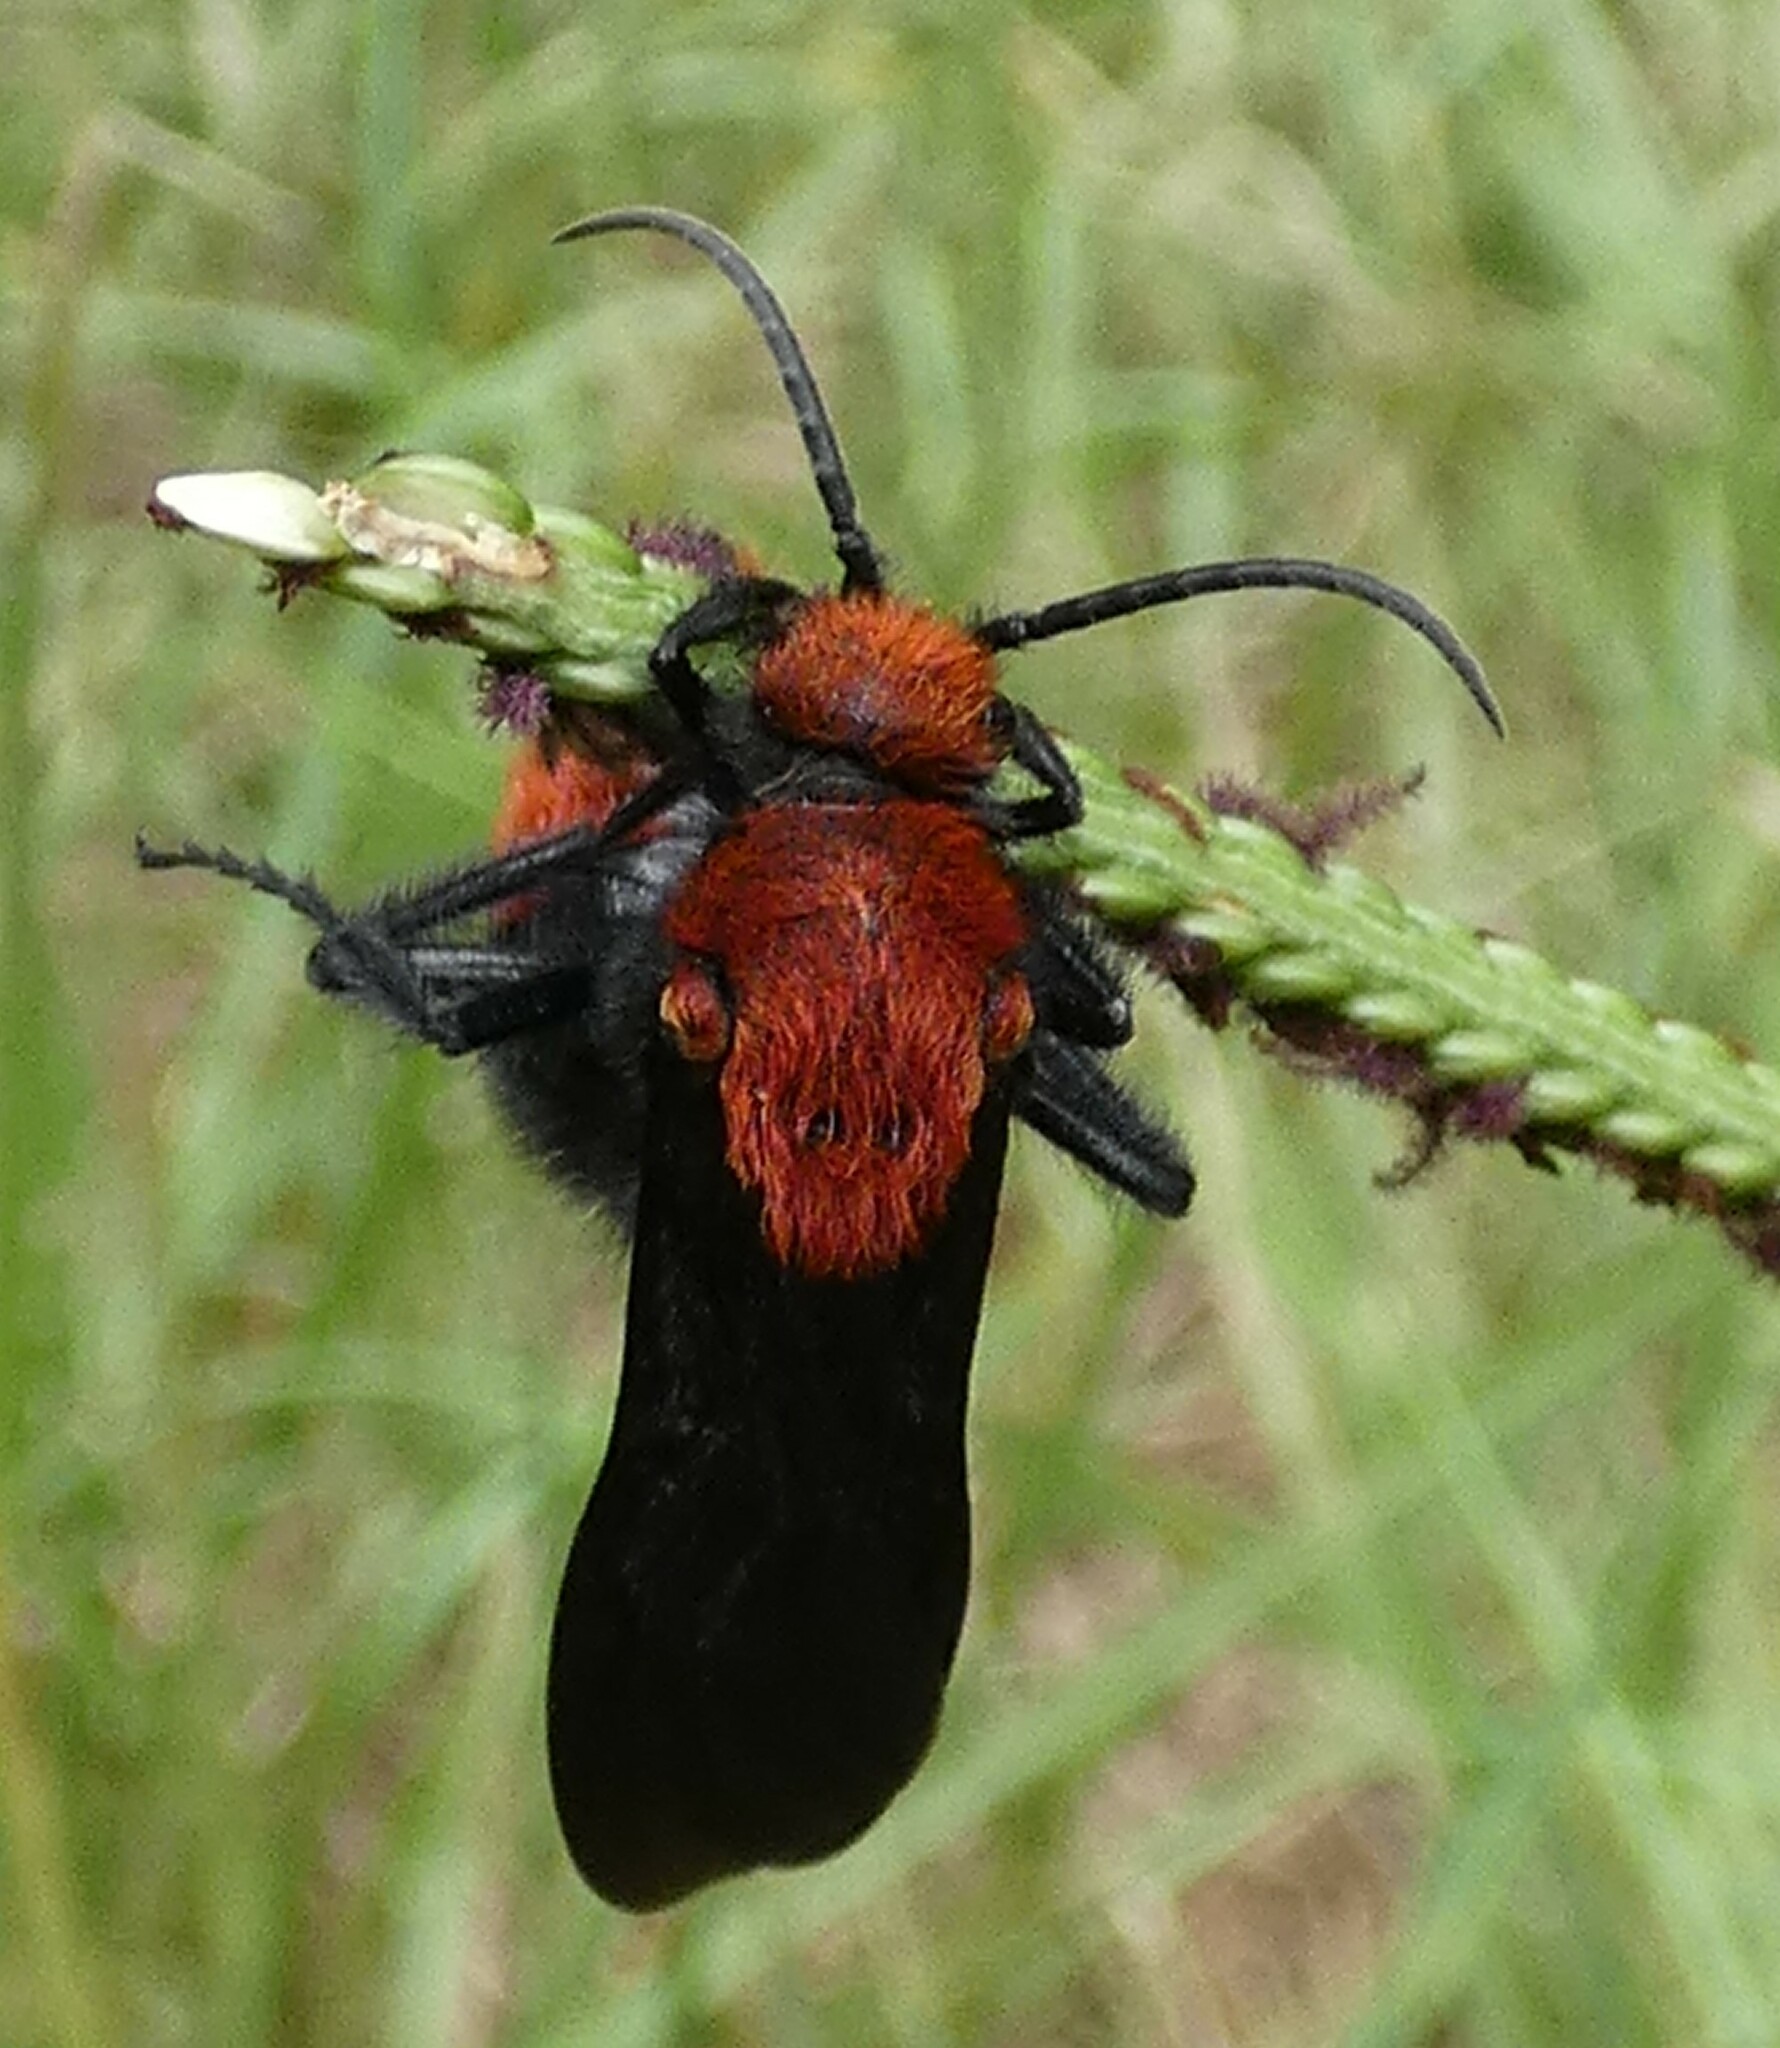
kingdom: Animalia
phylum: Arthropoda
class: Insecta
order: Hymenoptera
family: Mutillidae
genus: Dasymutilla
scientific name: Dasymutilla occidentalis
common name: Common eastern velvet ant
